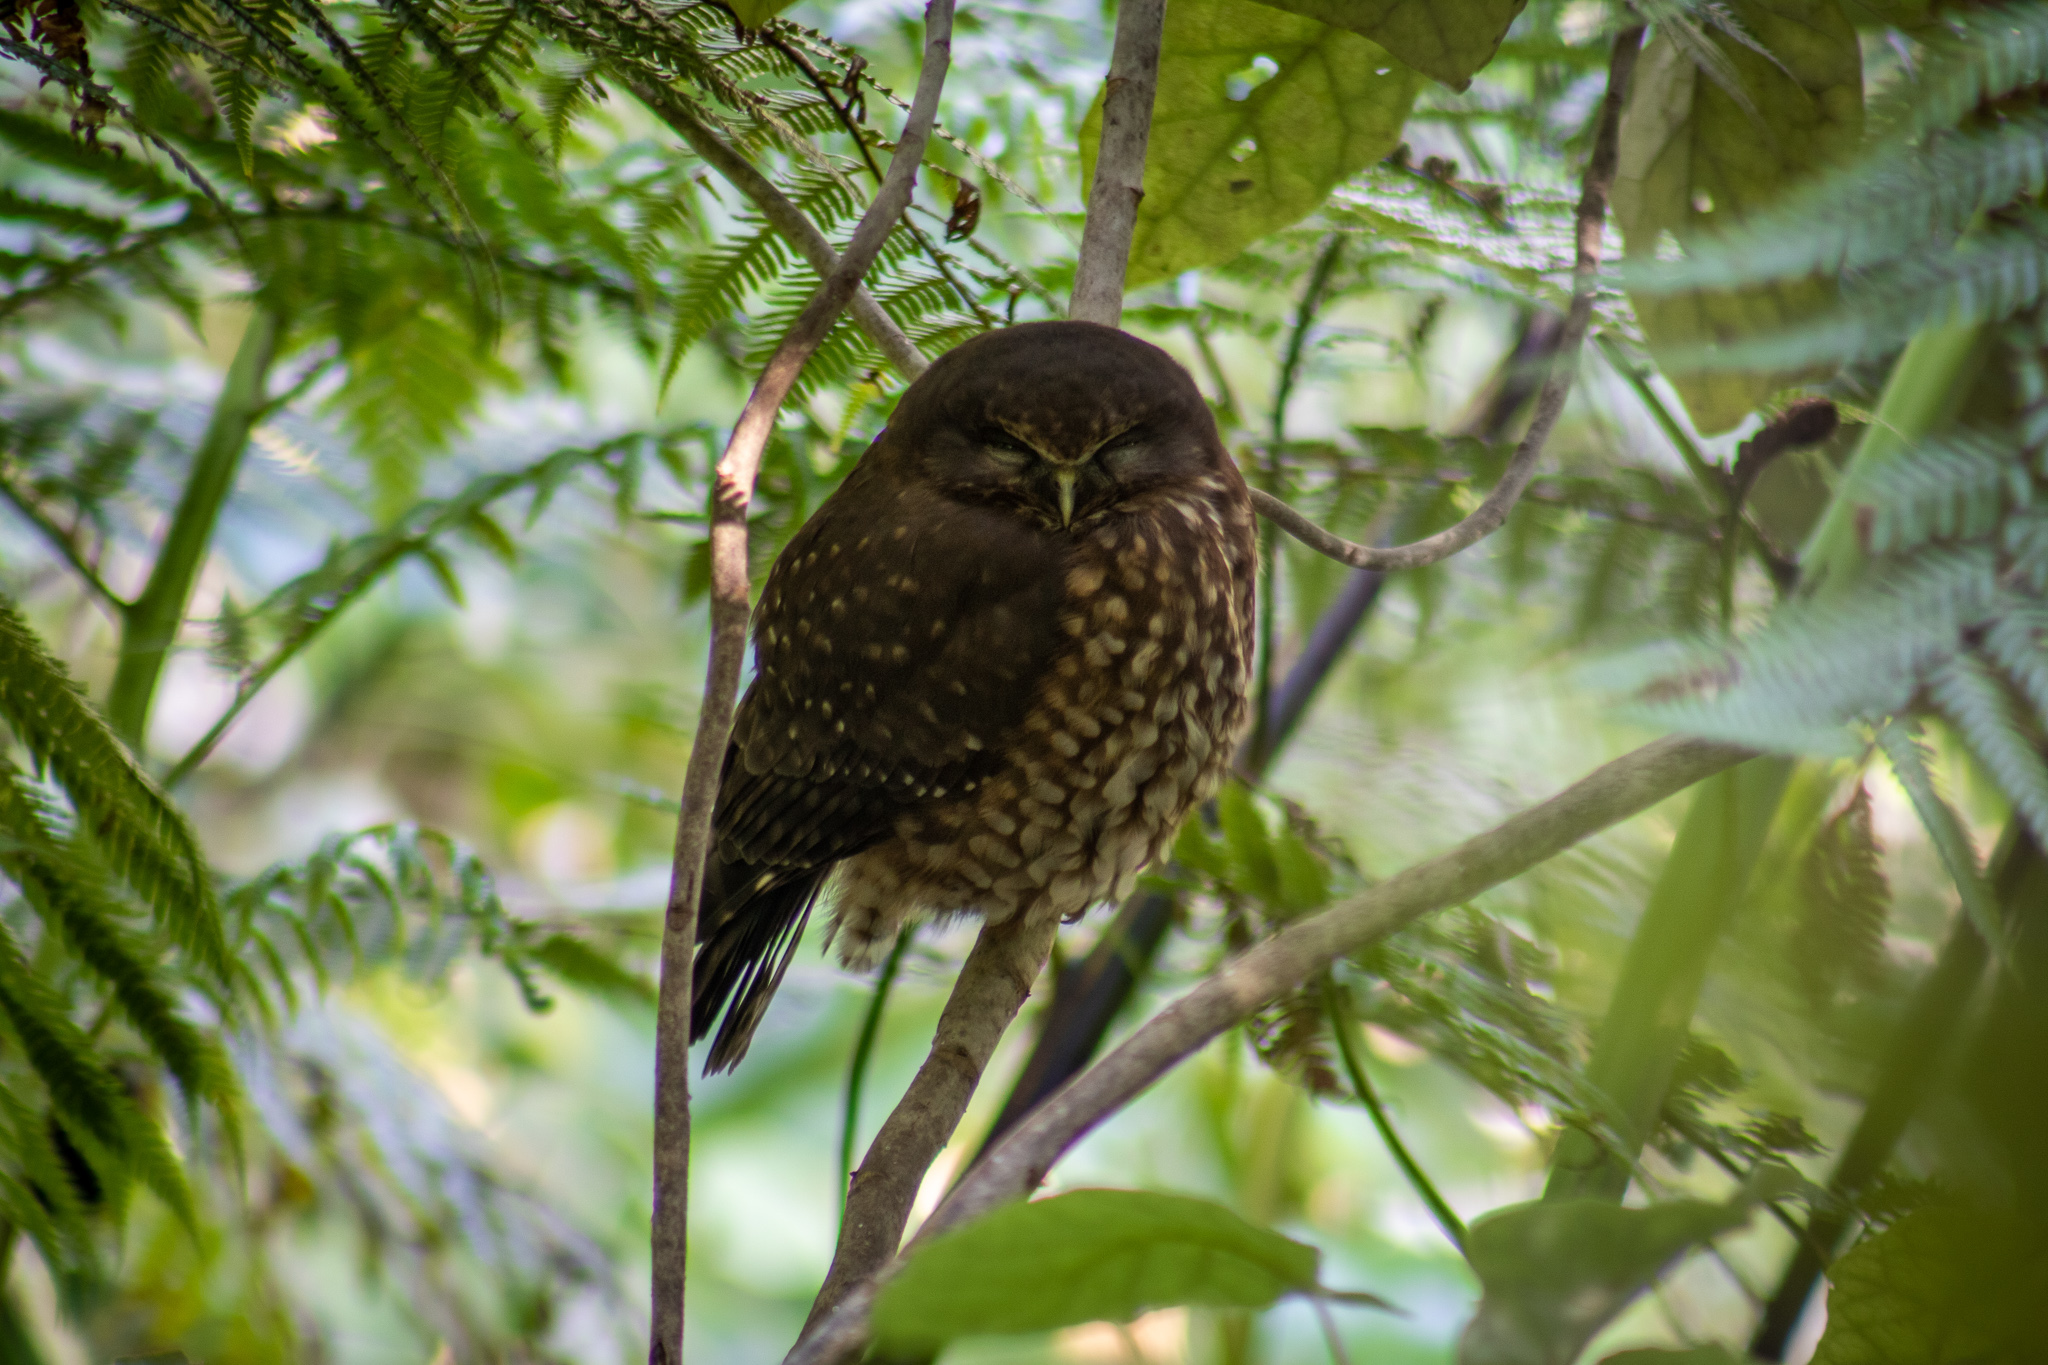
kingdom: Animalia
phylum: Chordata
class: Aves
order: Strigiformes
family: Strigidae
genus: Ninox
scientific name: Ninox novaeseelandiae
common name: Morepork
